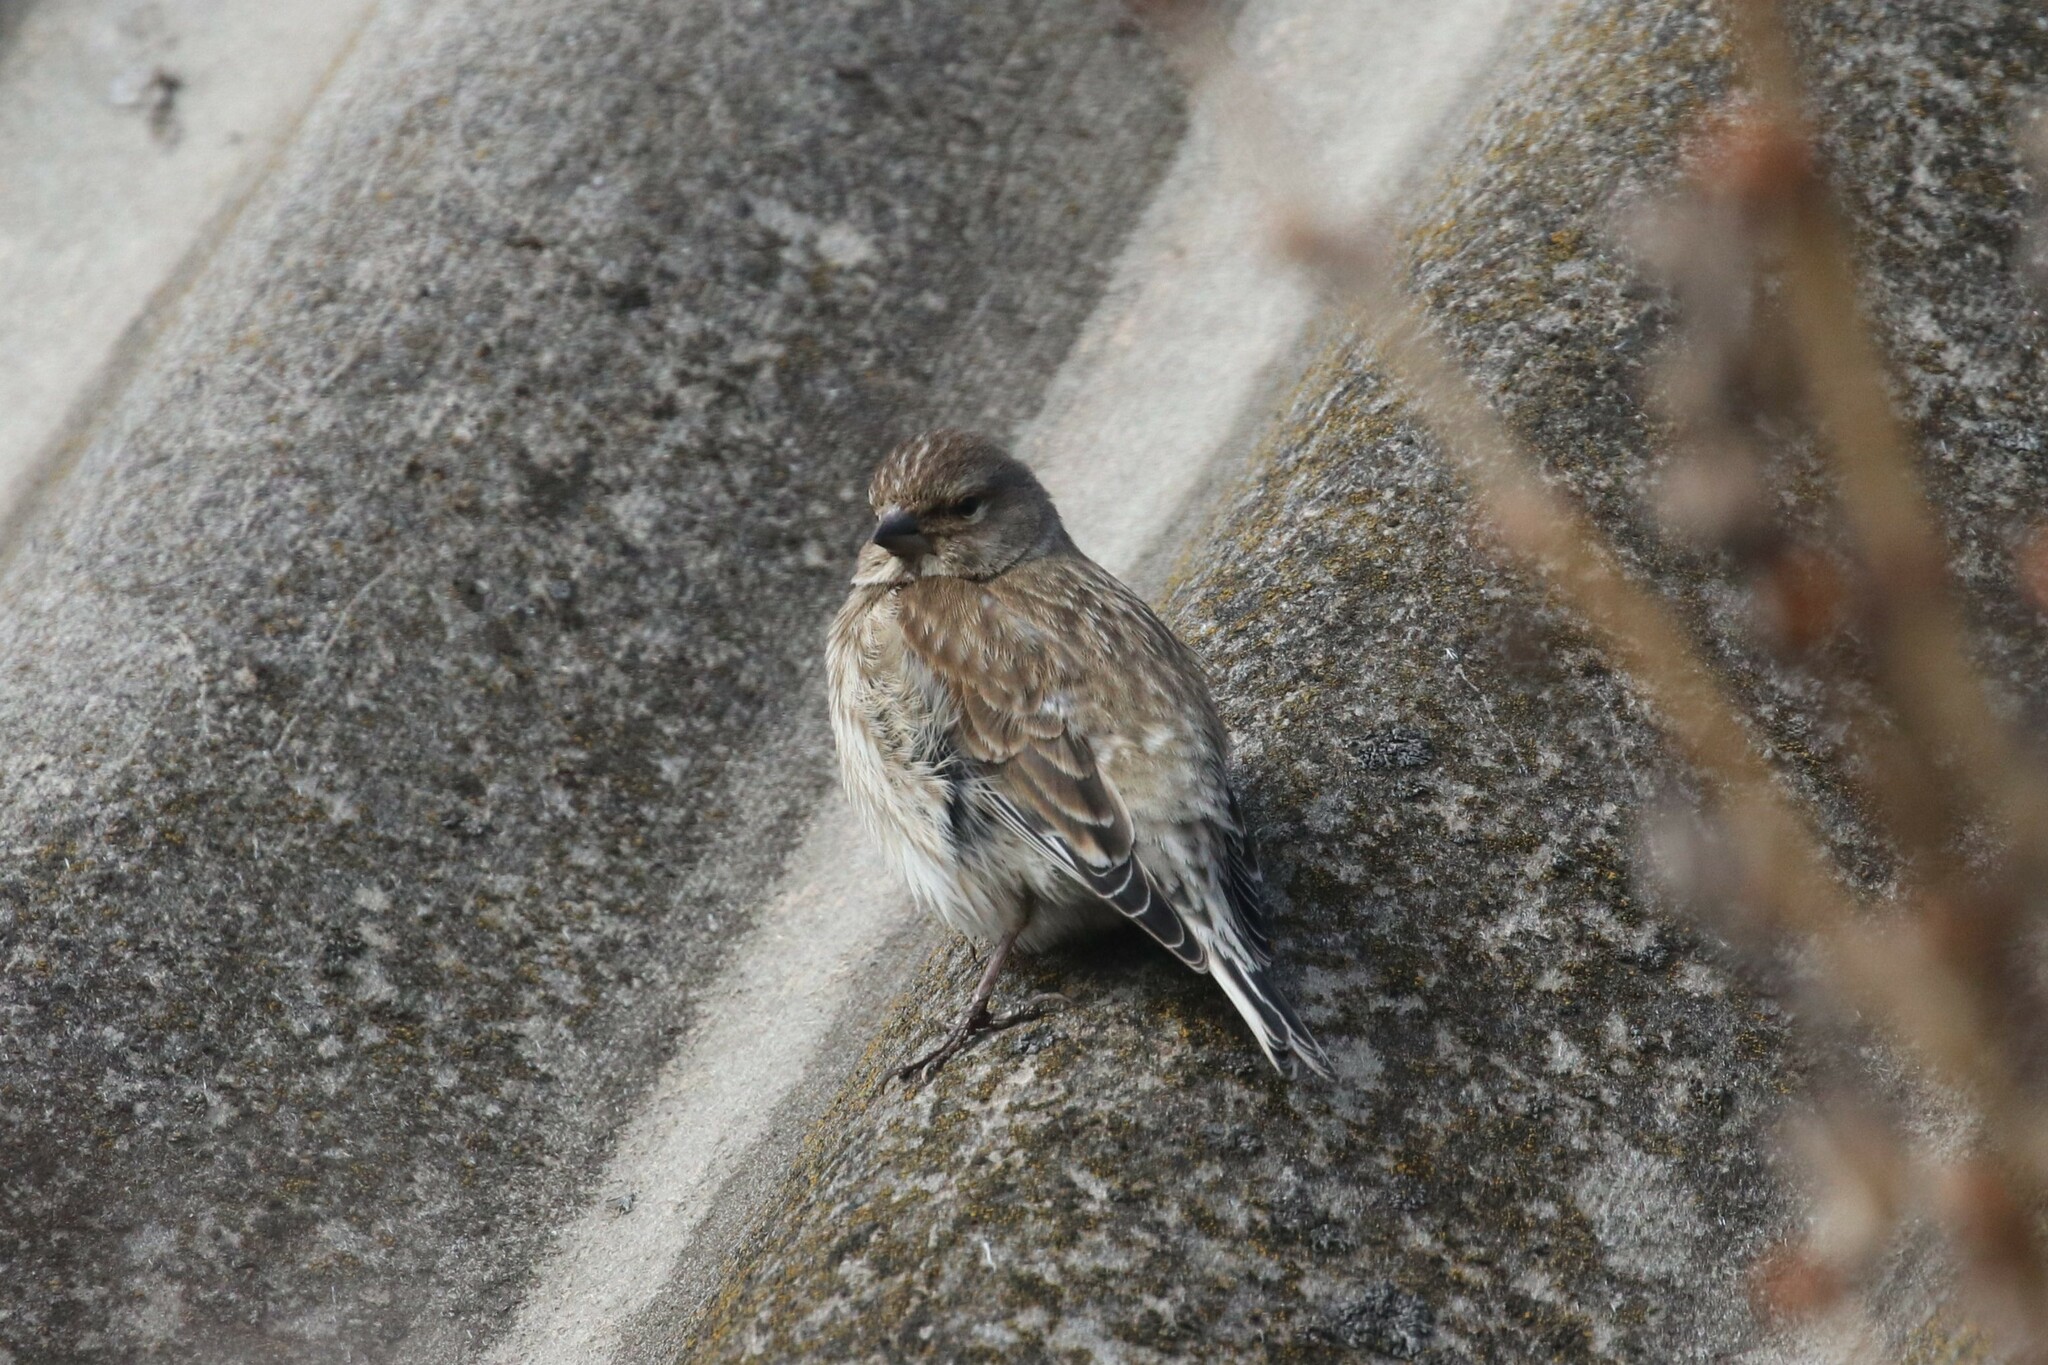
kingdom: Animalia
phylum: Chordata
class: Aves
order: Passeriformes
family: Fringillidae
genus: Linaria
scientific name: Linaria cannabina
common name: Common linnet
